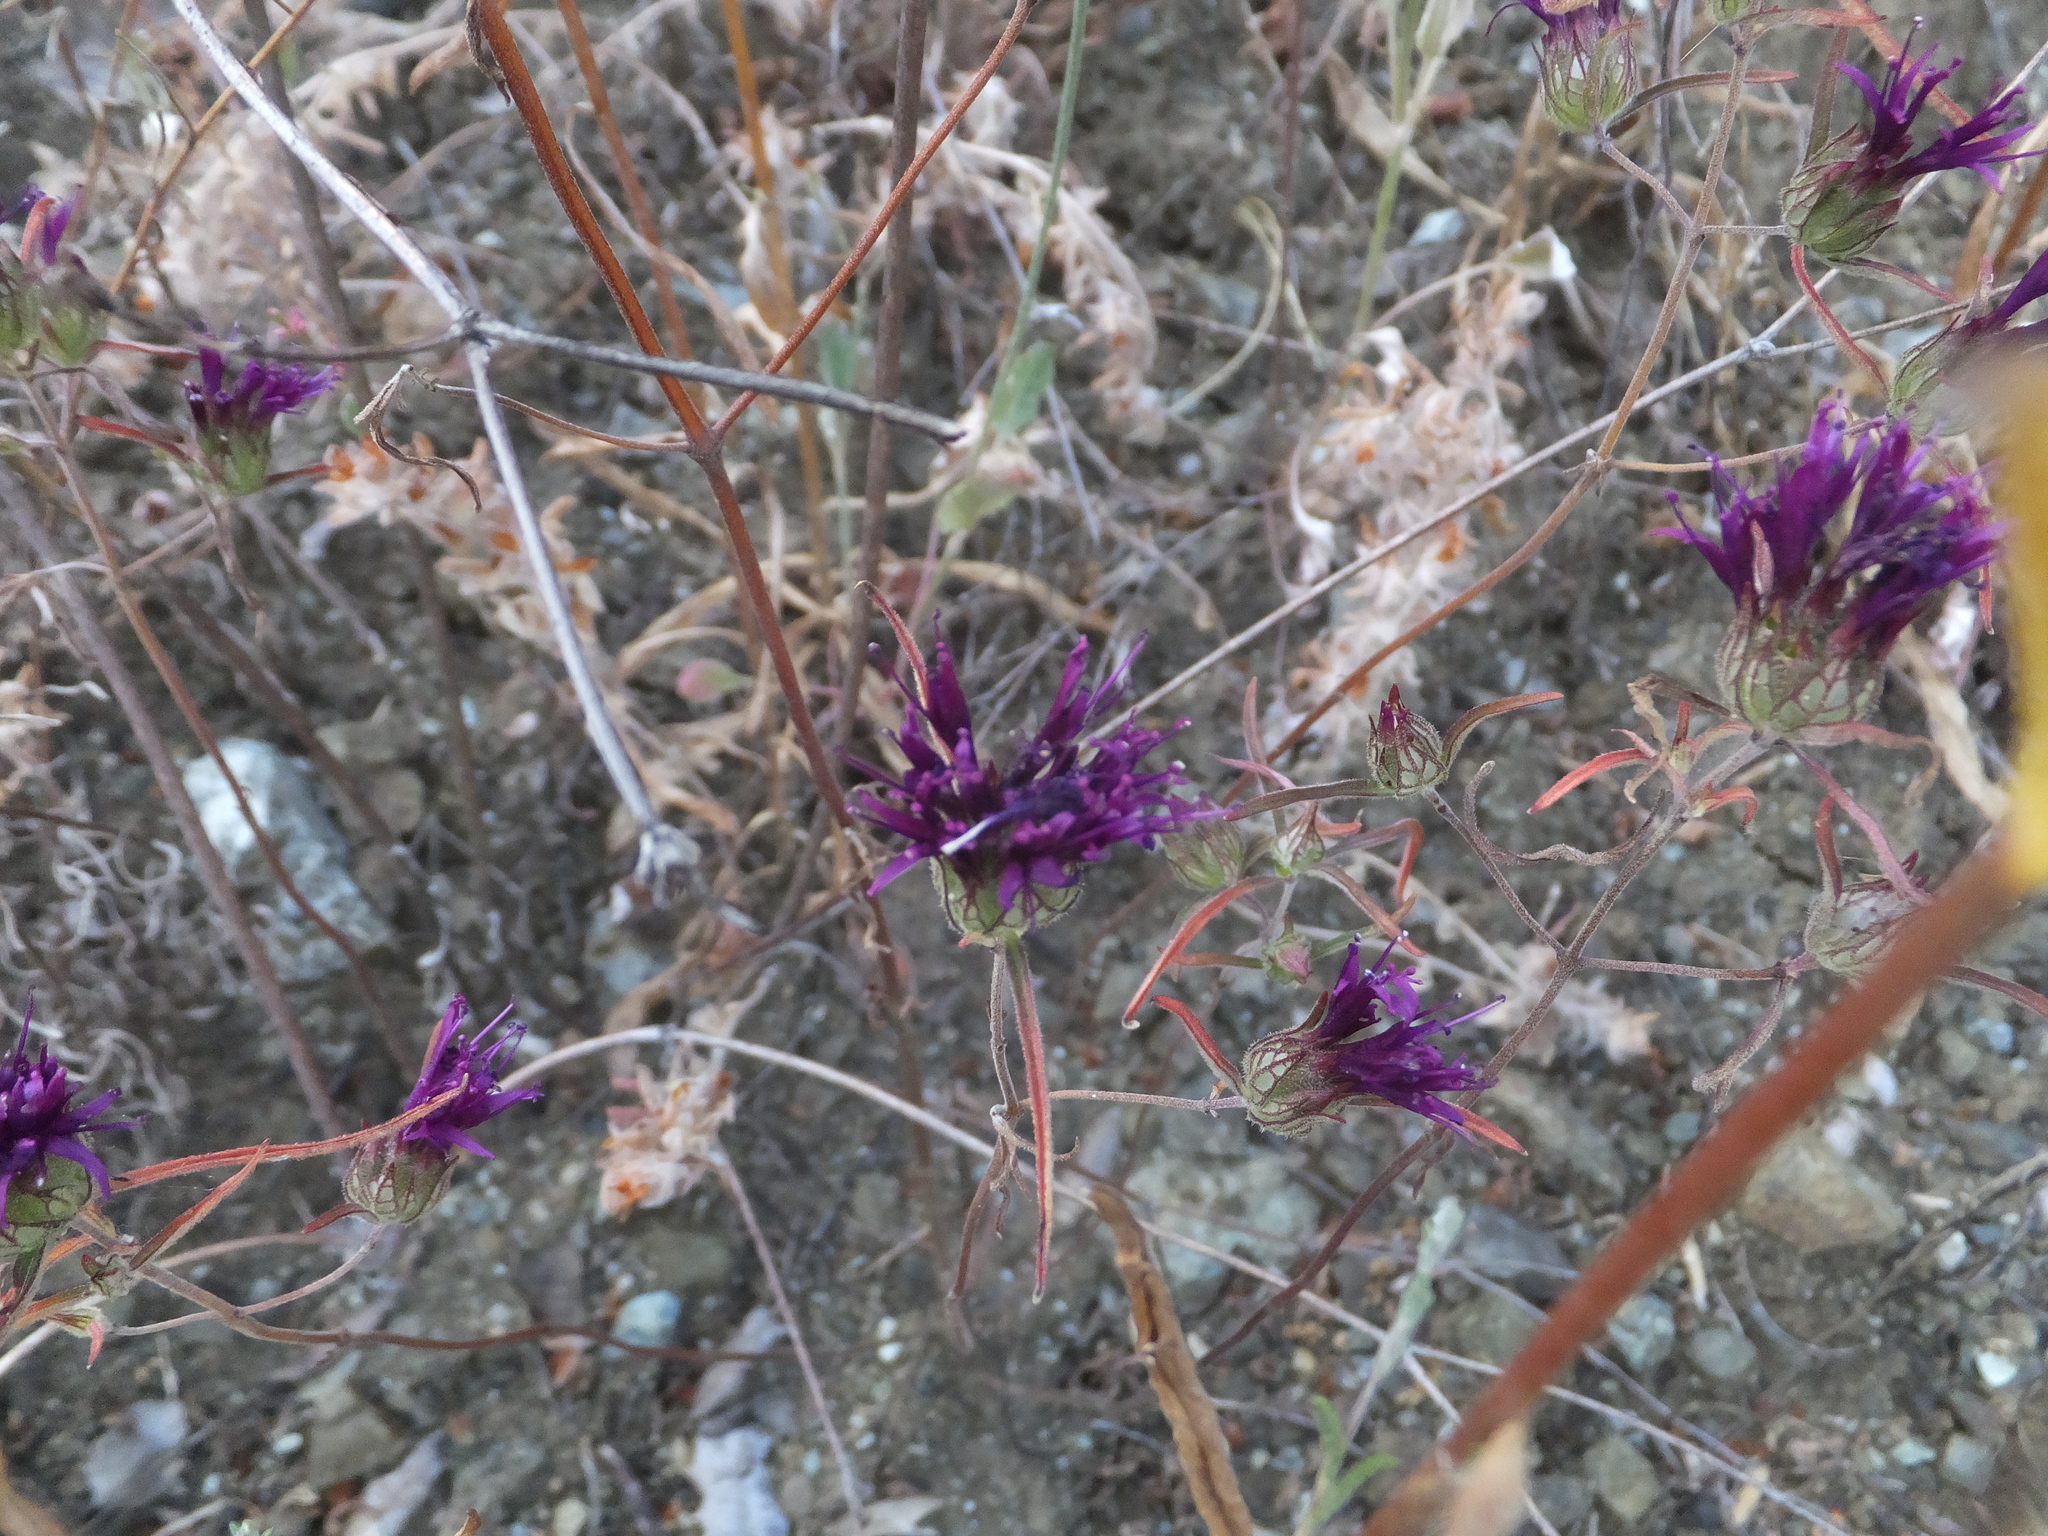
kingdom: Plantae
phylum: Tracheophyta
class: Magnoliopsida
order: Lamiales
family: Lamiaceae
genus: Monardella
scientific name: Monardella douglasii
